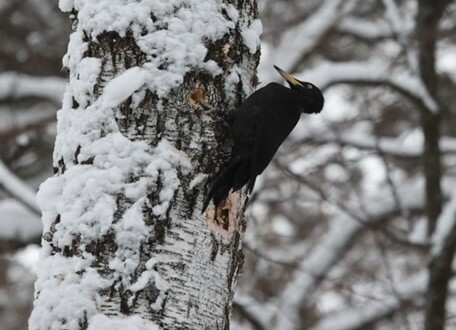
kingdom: Animalia
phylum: Chordata
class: Aves
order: Piciformes
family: Picidae
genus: Dryocopus
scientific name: Dryocopus martius
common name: Black woodpecker
